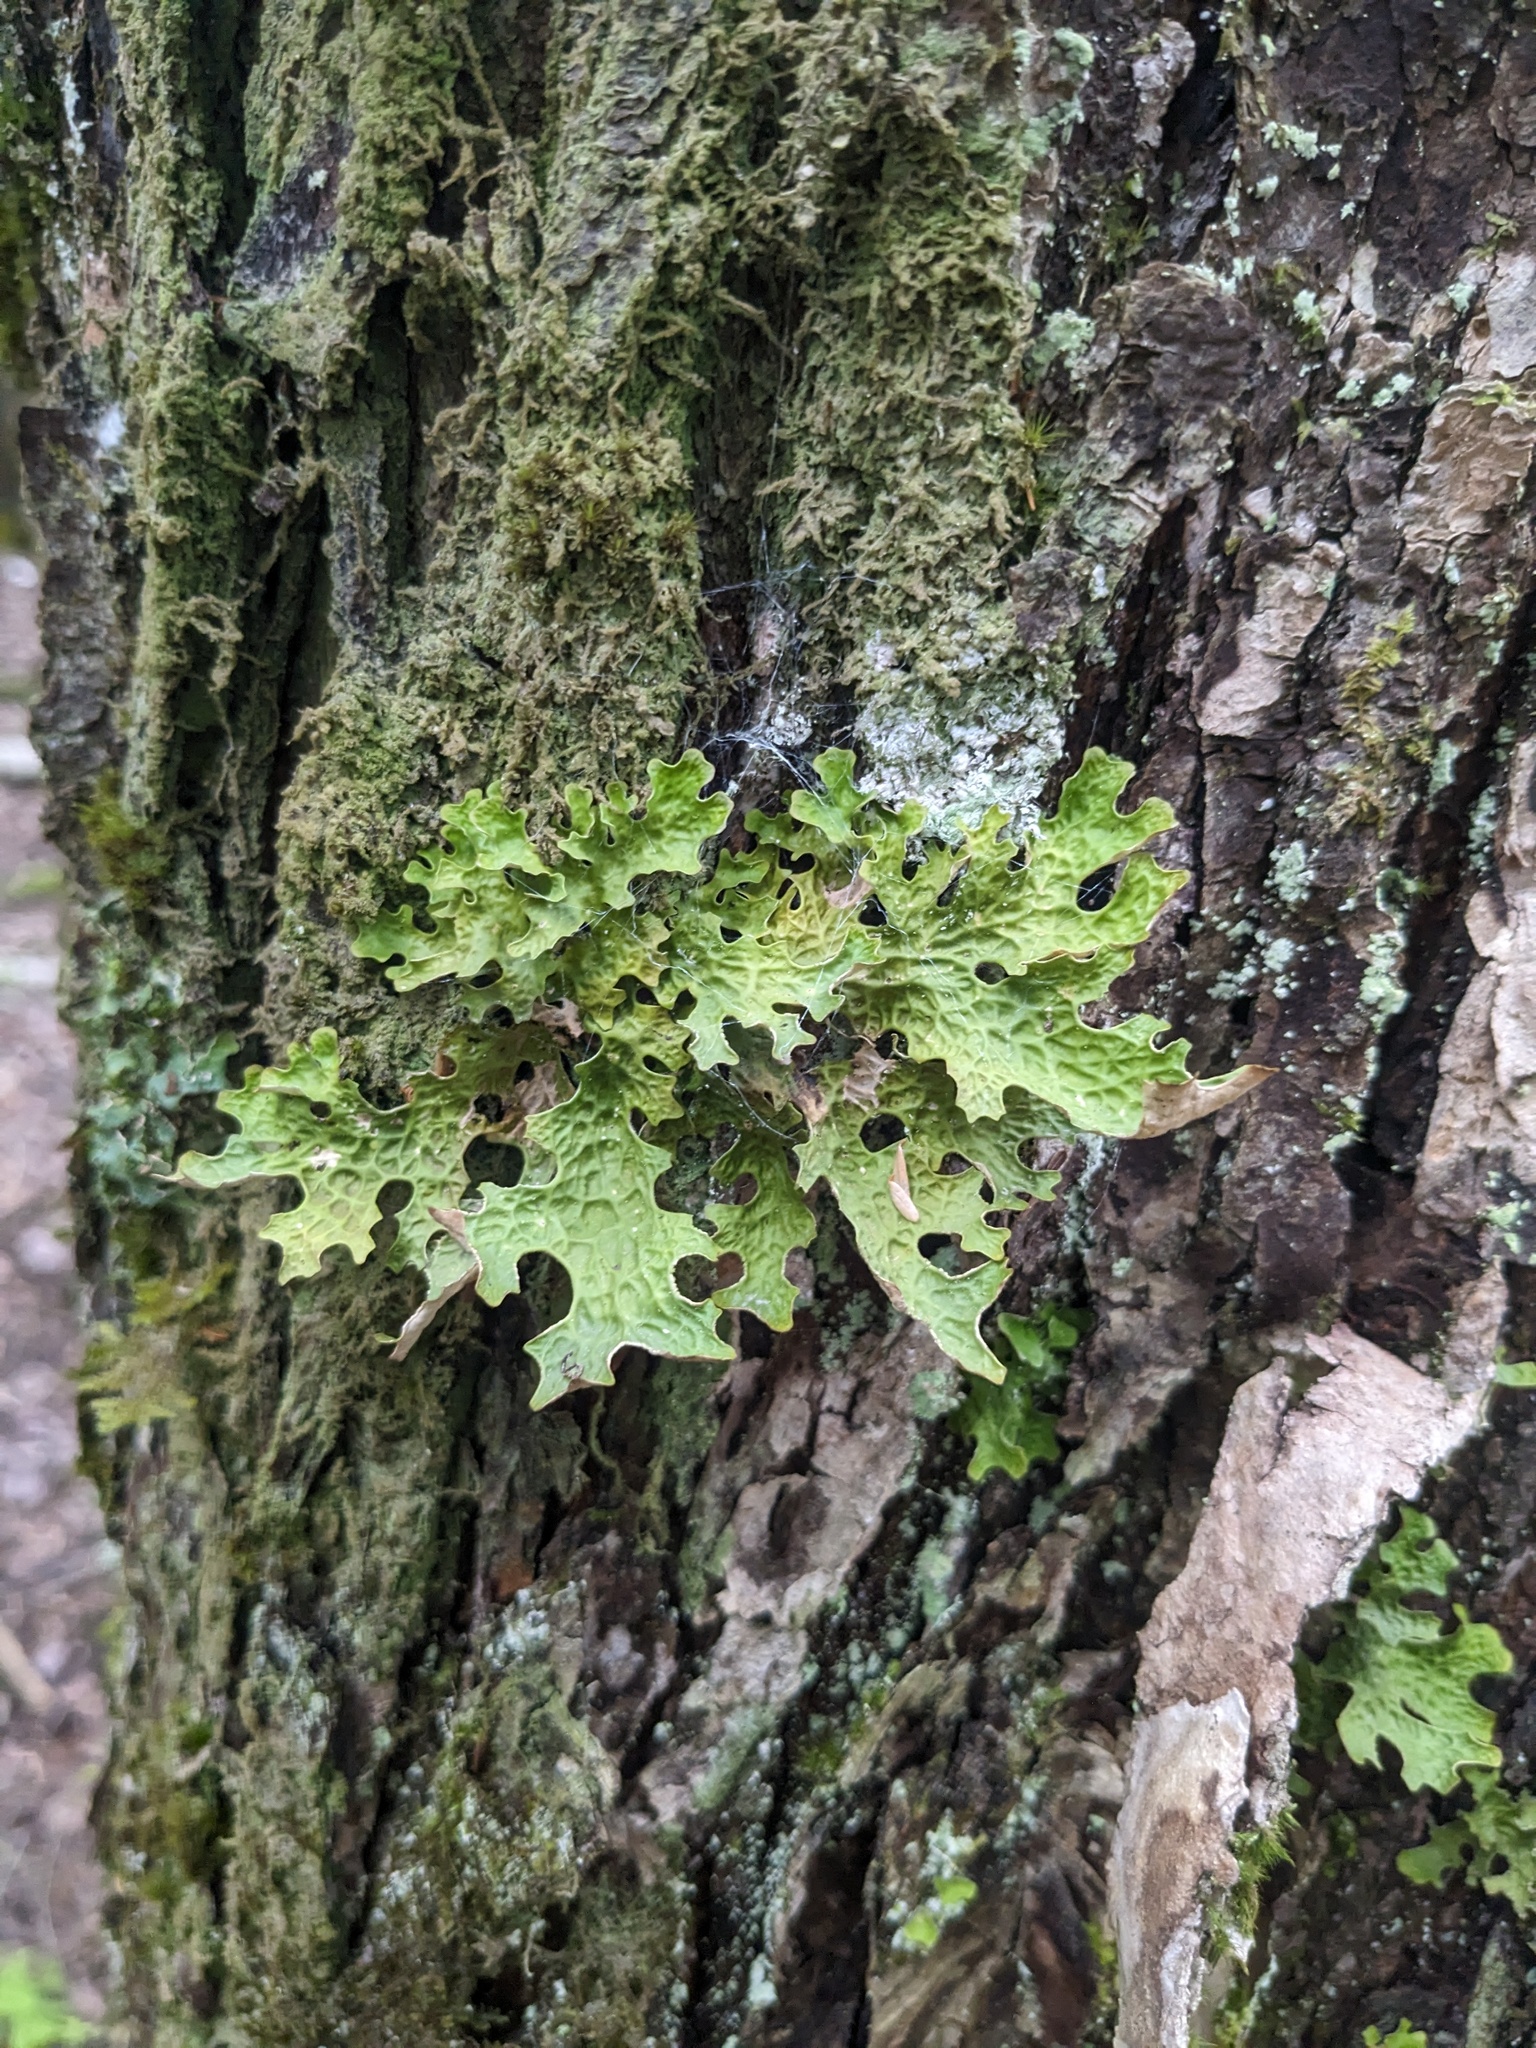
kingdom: Fungi
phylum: Ascomycota
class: Lecanoromycetes
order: Peltigerales
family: Lobariaceae
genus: Lobaria
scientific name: Lobaria pulmonaria
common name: Lungwort
